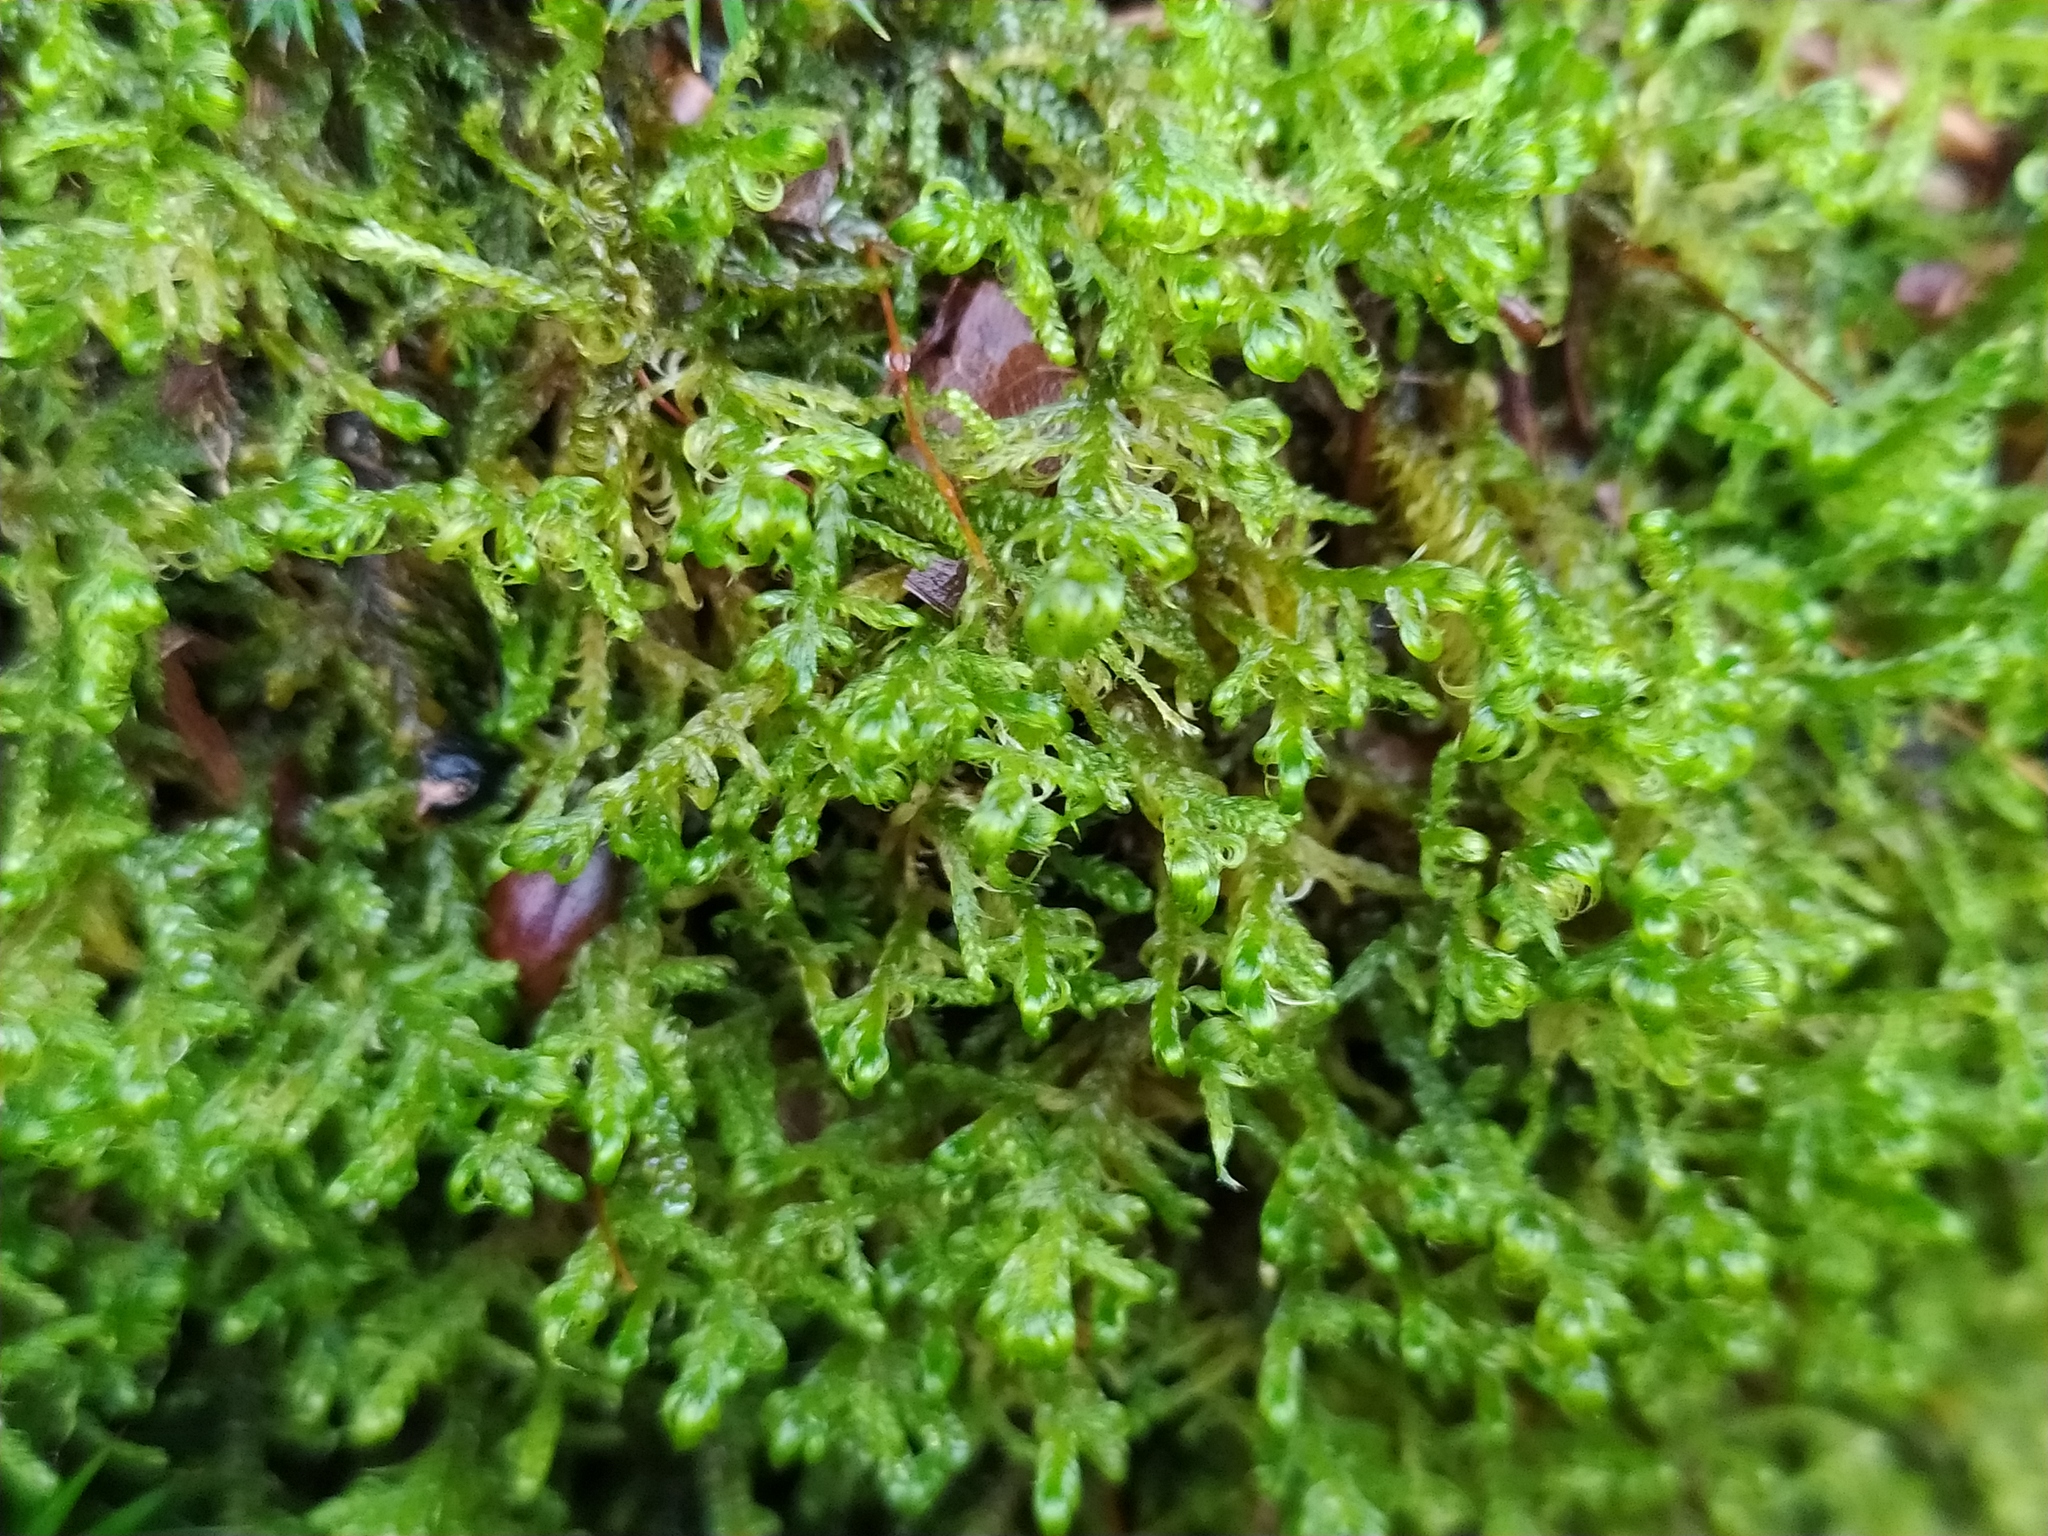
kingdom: Plantae
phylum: Bryophyta
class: Bryopsida
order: Hypnales
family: Scorpidiaceae
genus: Sanionia
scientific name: Sanionia uncinata
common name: Sickle moss
